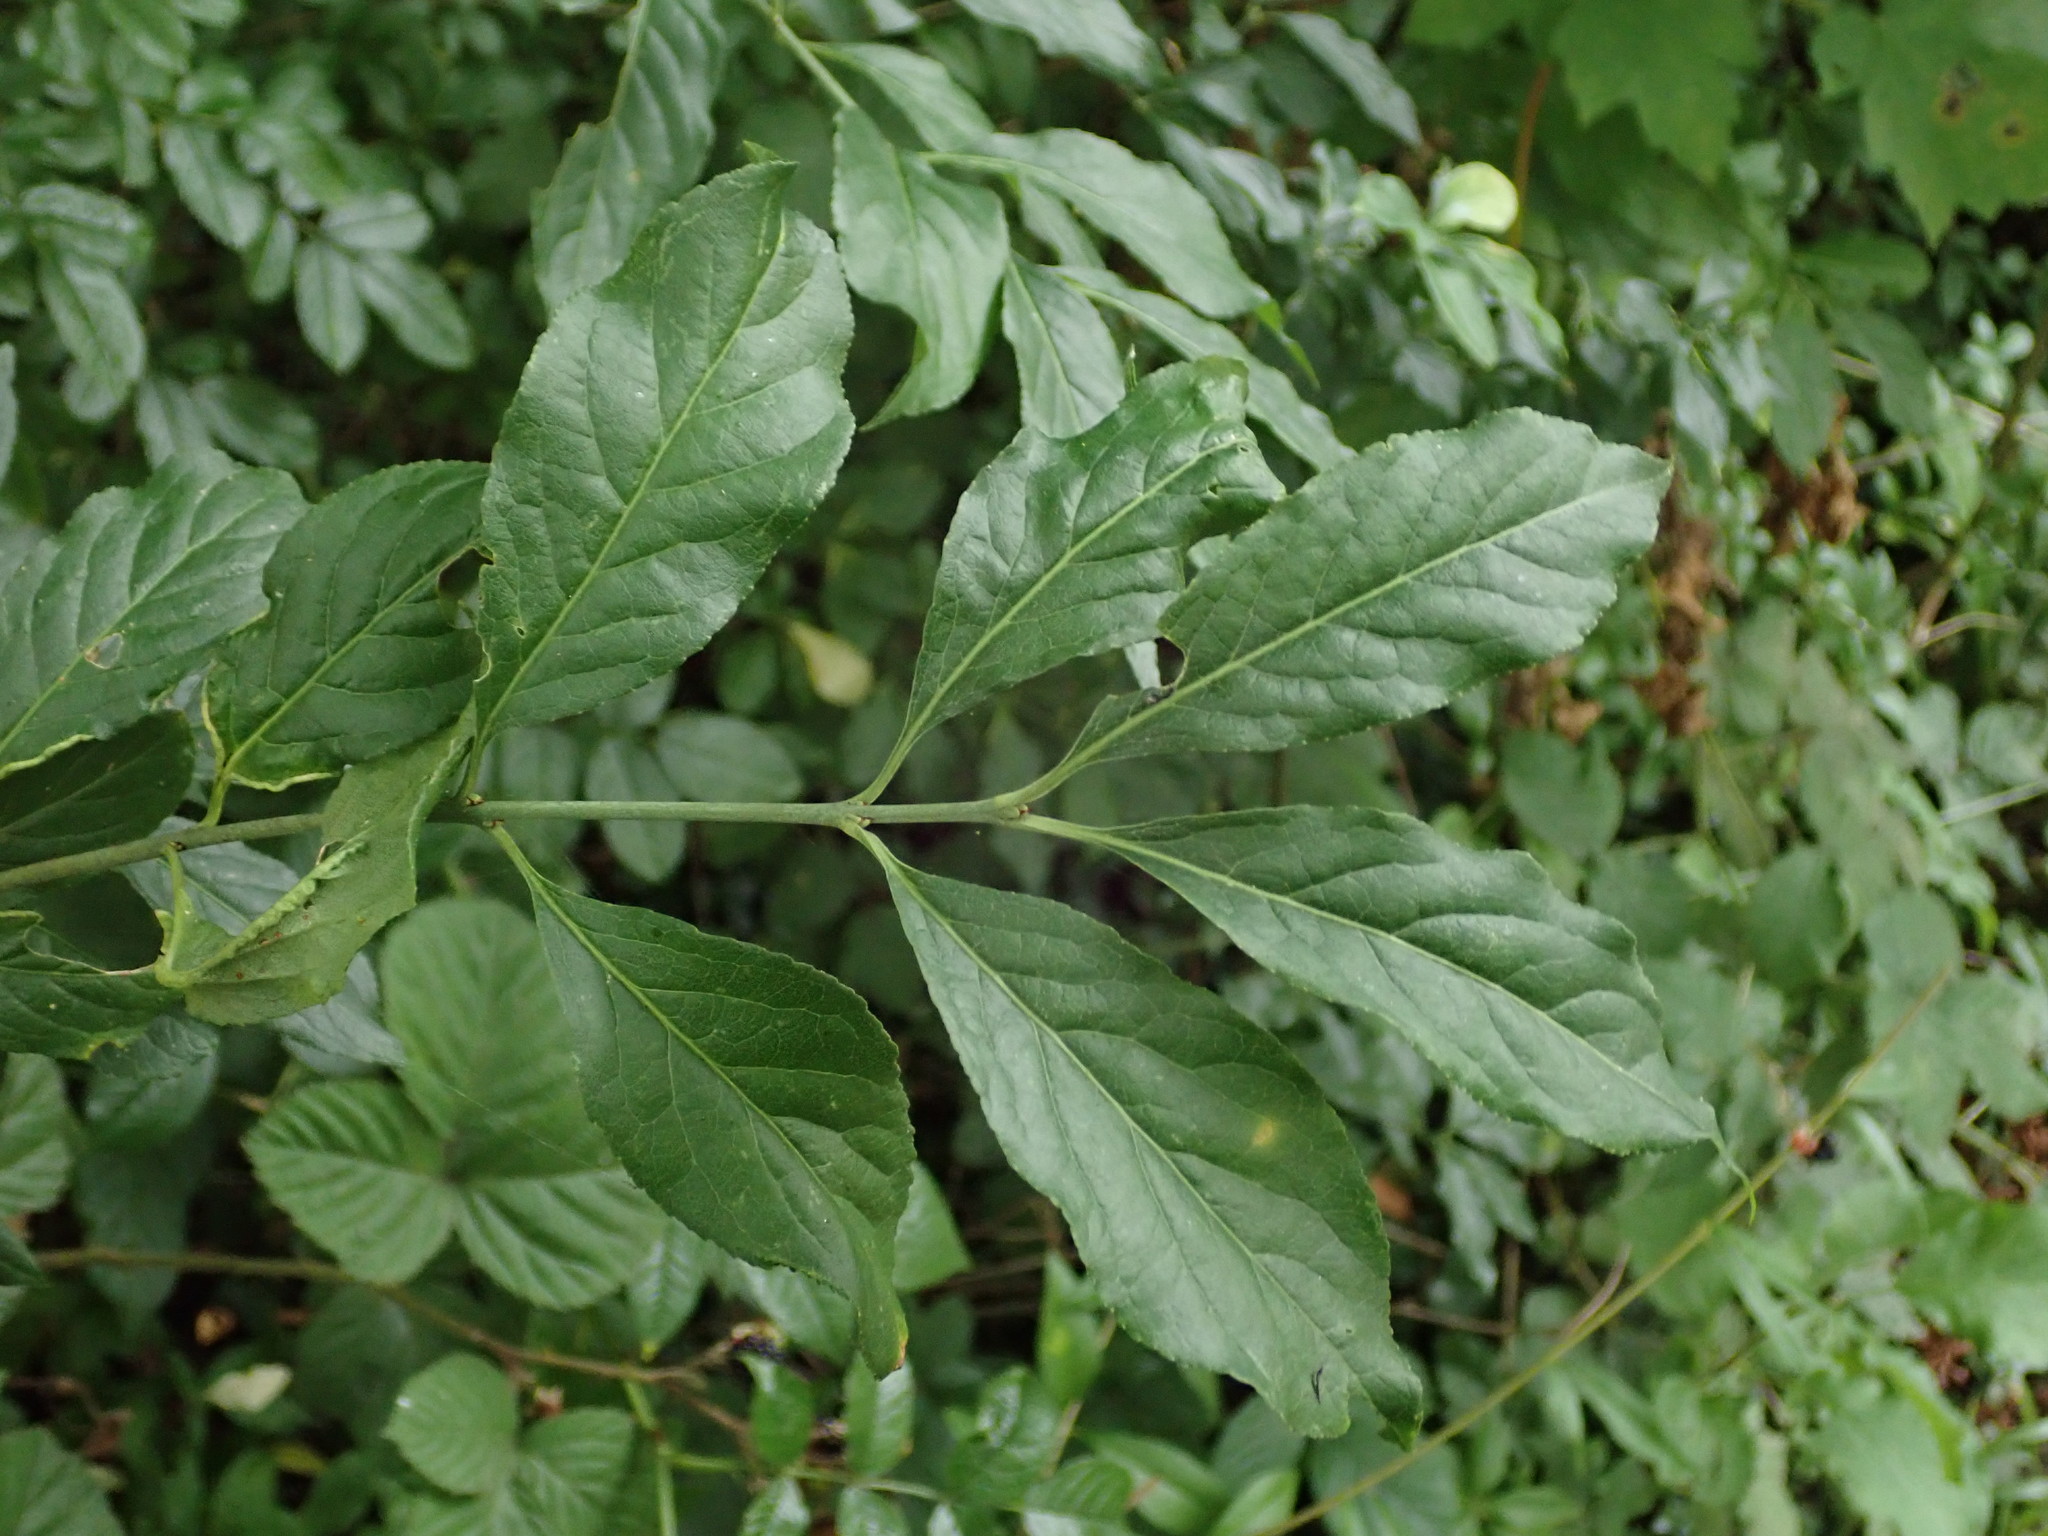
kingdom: Plantae
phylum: Tracheophyta
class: Magnoliopsida
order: Celastrales
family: Celastraceae
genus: Euonymus
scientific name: Euonymus europaeus
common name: Spindle
